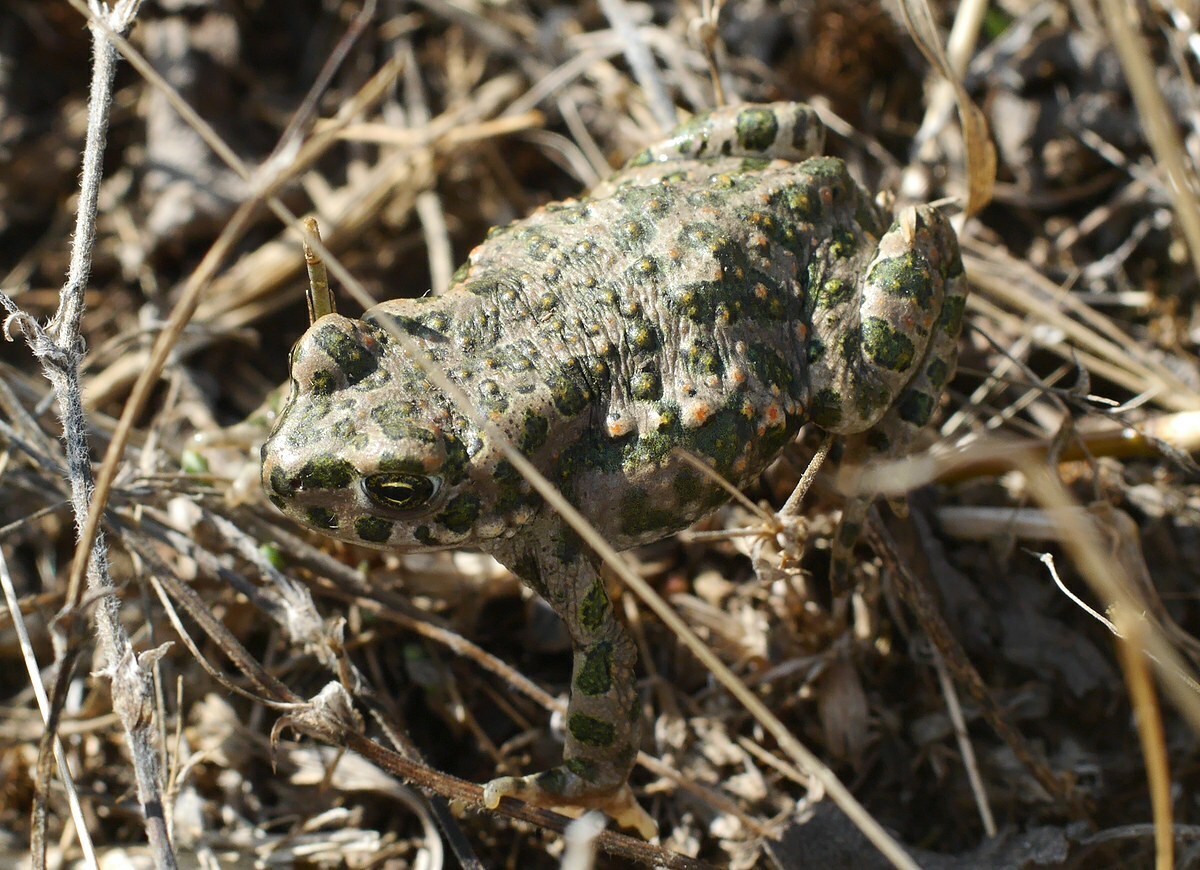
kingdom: Animalia
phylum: Chordata
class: Amphibia
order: Anura
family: Bufonidae
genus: Bufotes
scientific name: Bufotes viridis
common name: European green toad
